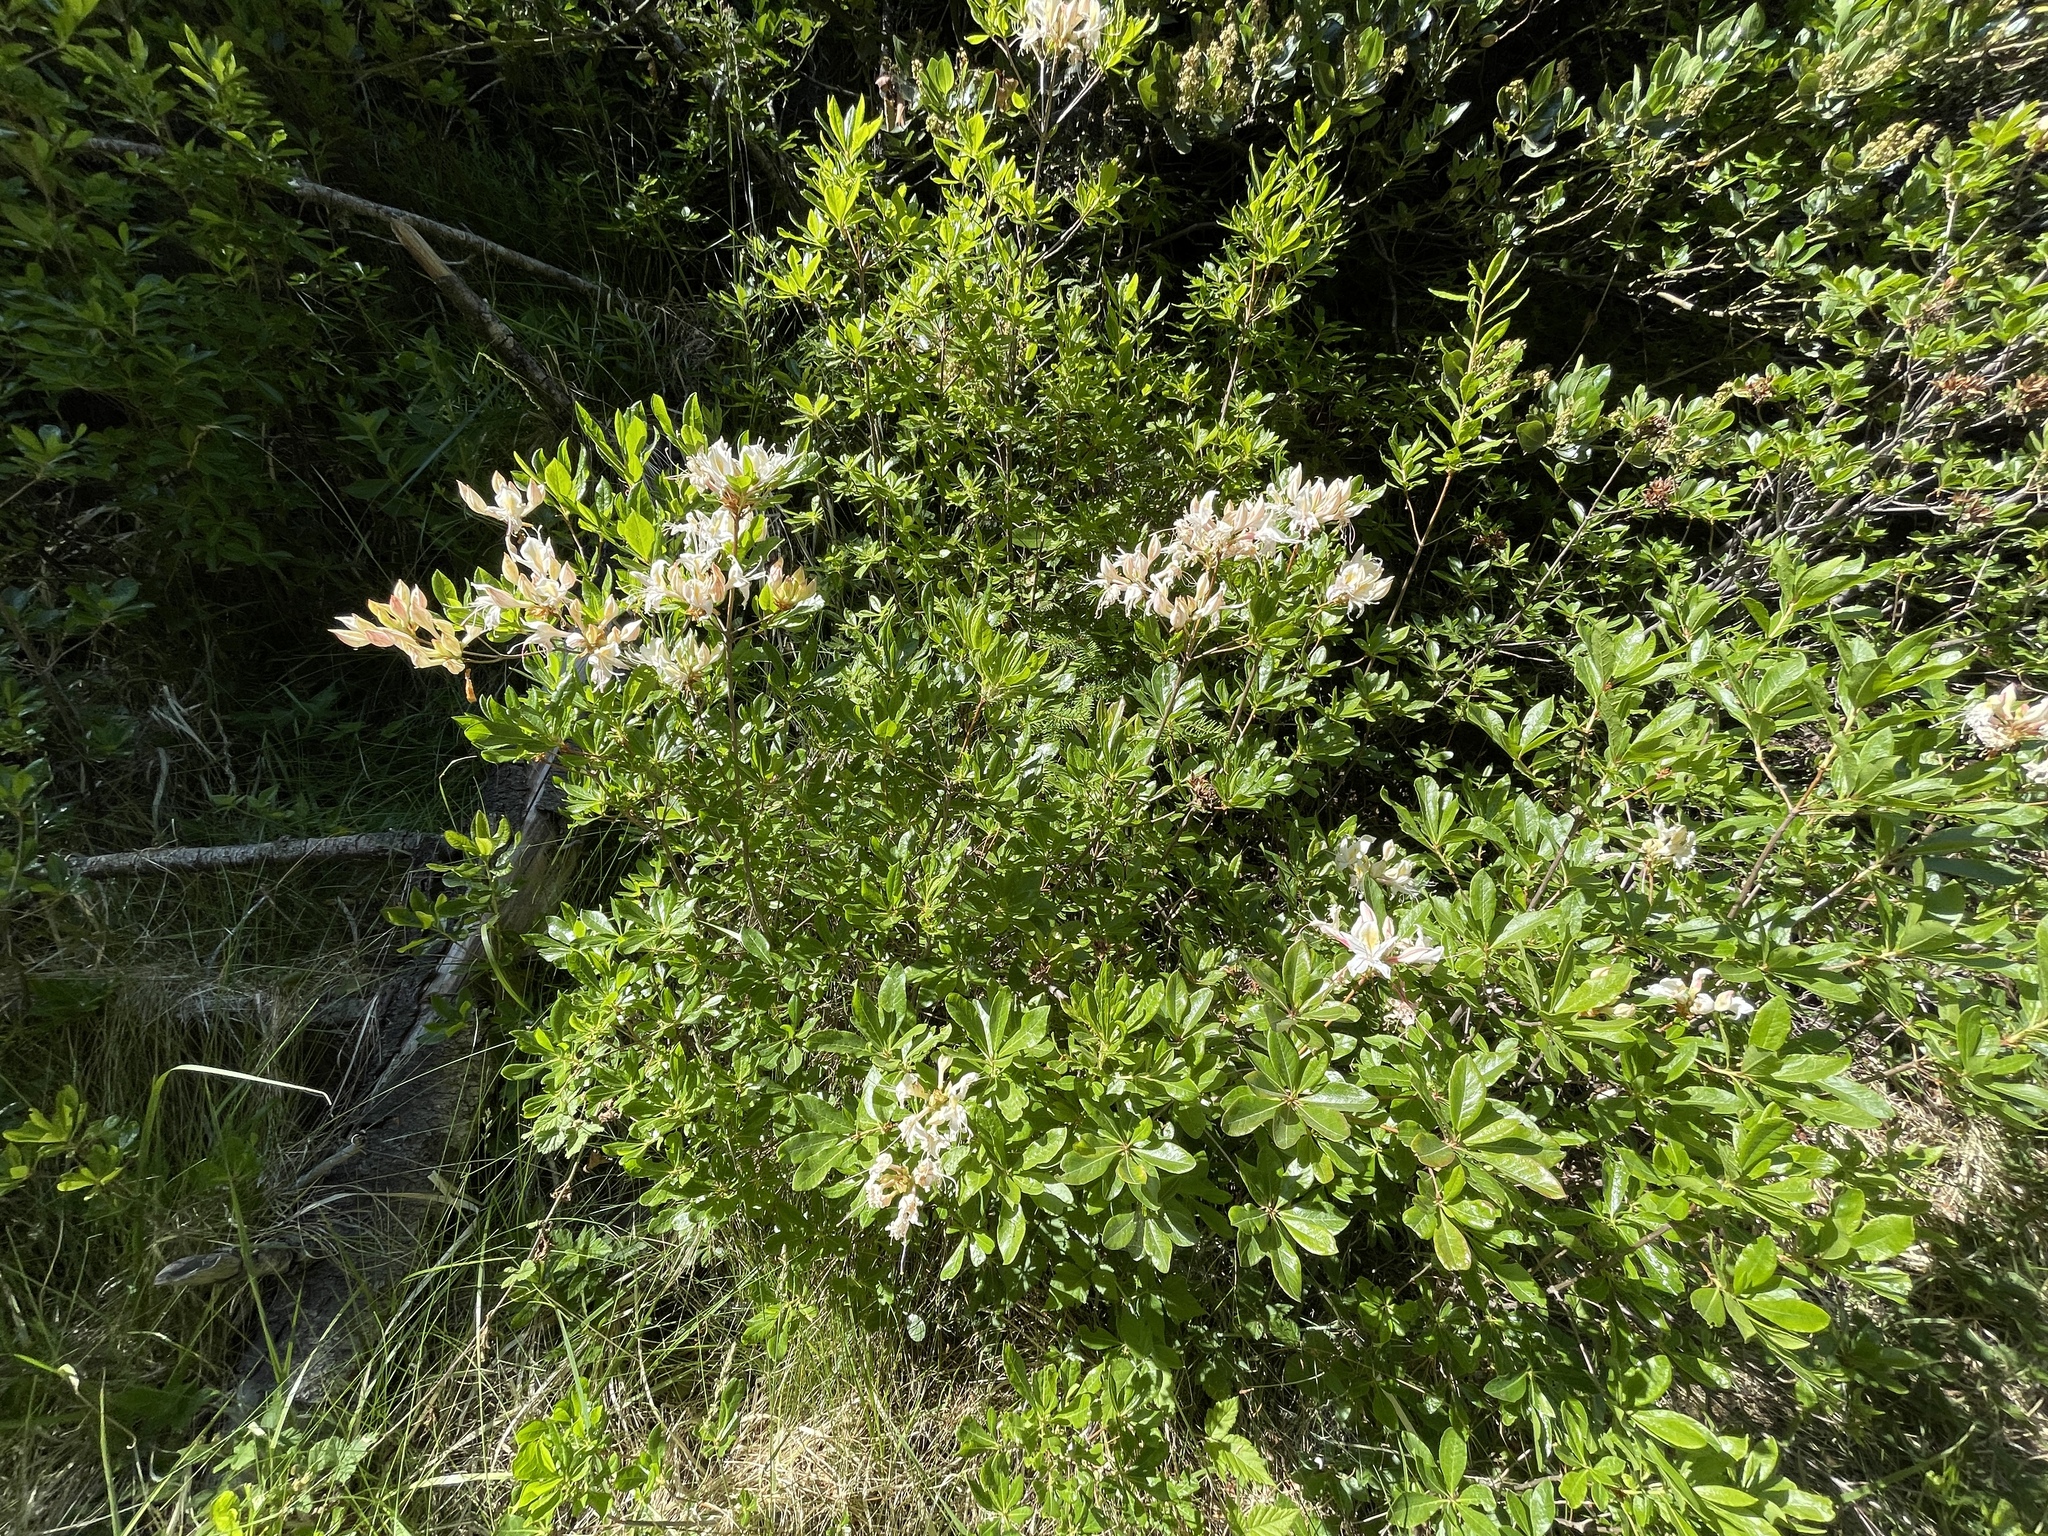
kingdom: Plantae
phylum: Tracheophyta
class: Magnoliopsida
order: Ericales
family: Ericaceae
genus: Rhododendron
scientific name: Rhododendron occidentale
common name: Western azalea
